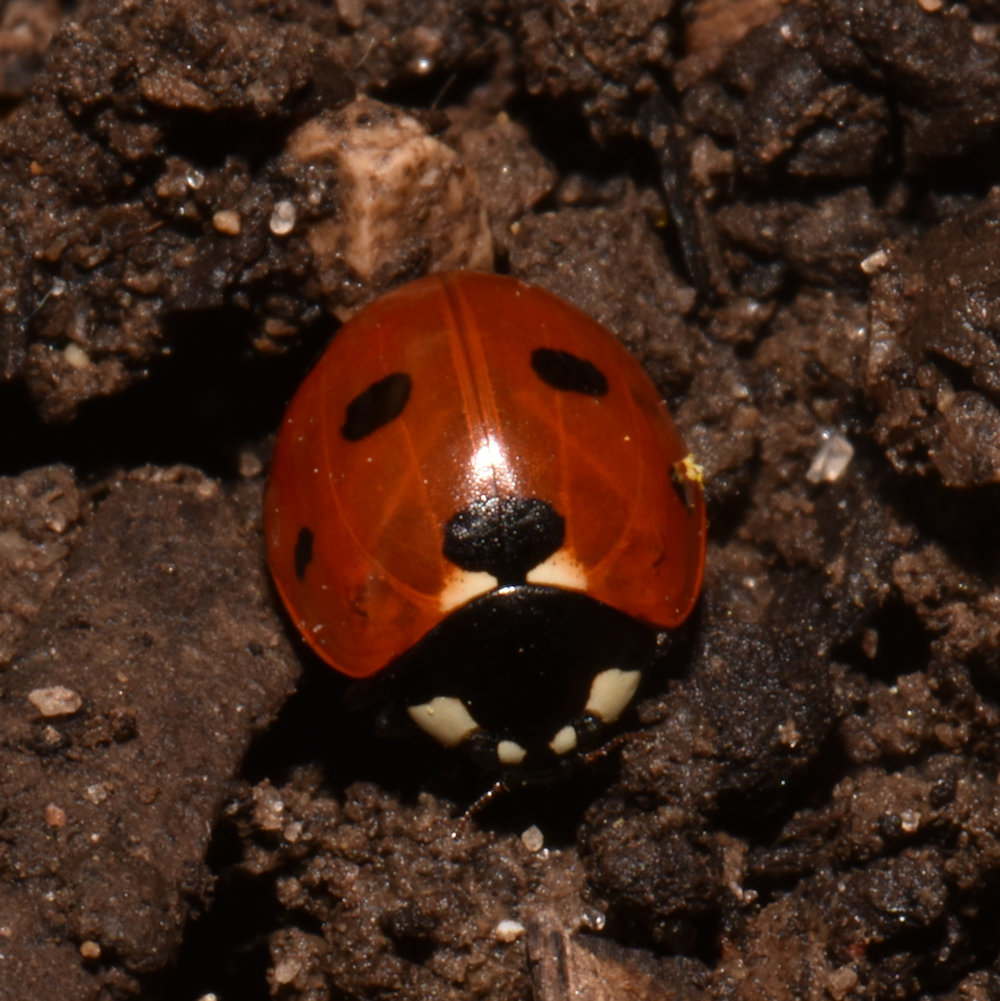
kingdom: Animalia
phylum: Arthropoda
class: Insecta
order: Coleoptera
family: Coccinellidae
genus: Coccinella
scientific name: Coccinella septempunctata
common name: Sevenspotted lady beetle
